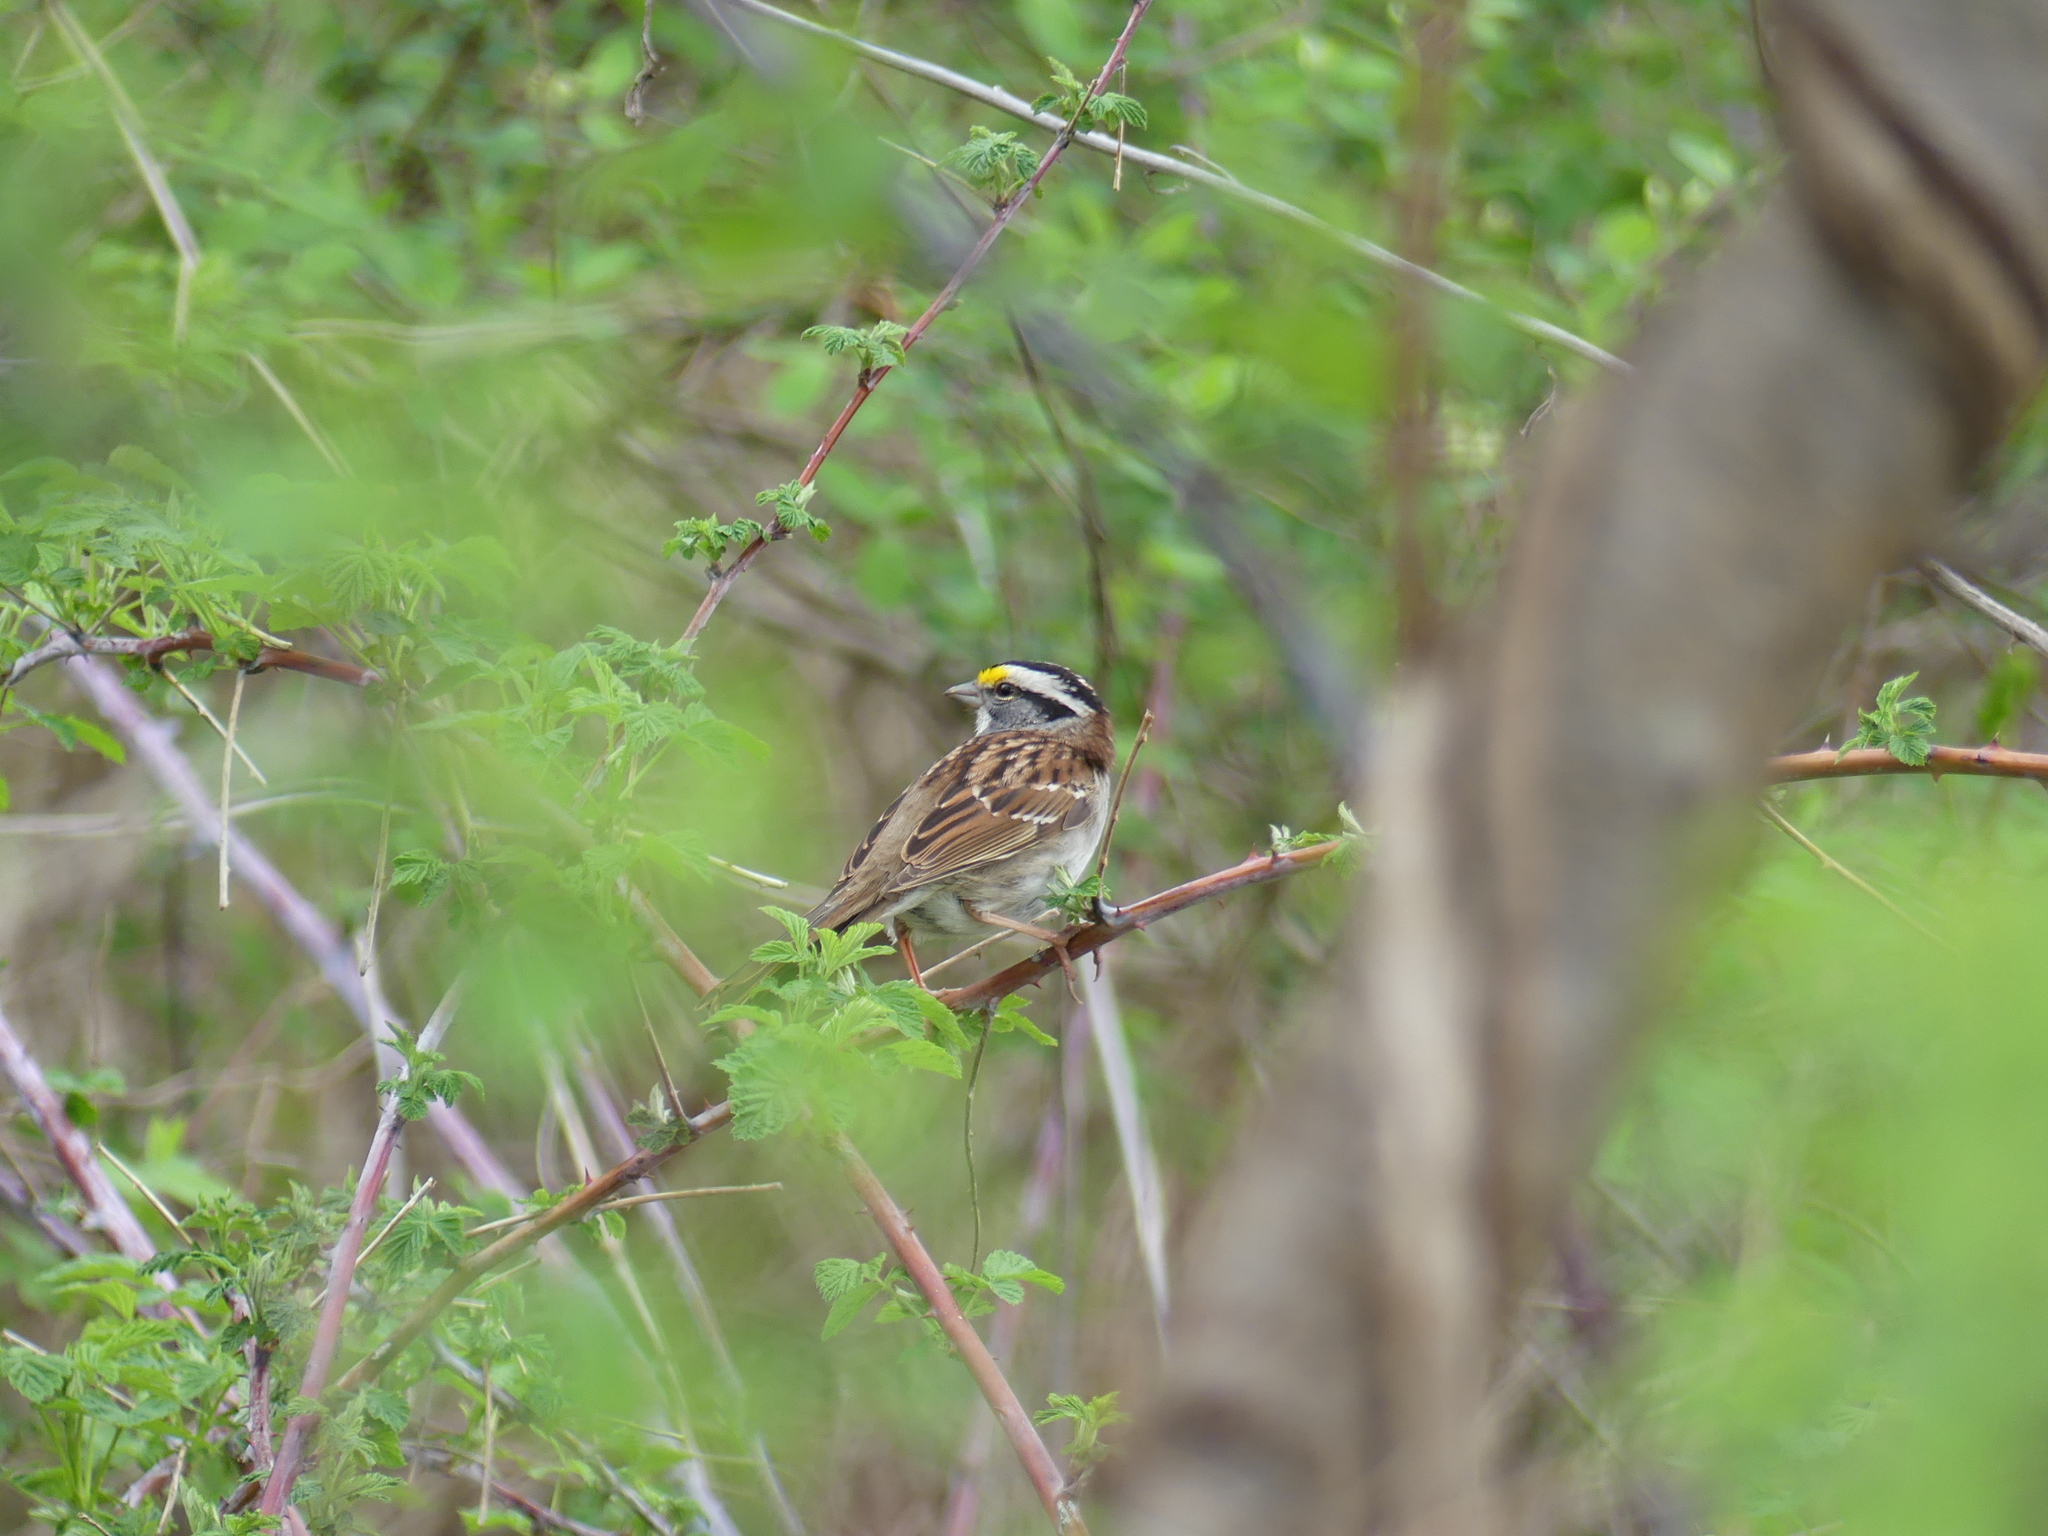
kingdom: Animalia
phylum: Chordata
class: Aves
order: Passeriformes
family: Passerellidae
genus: Zonotrichia
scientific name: Zonotrichia albicollis
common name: White-throated sparrow
